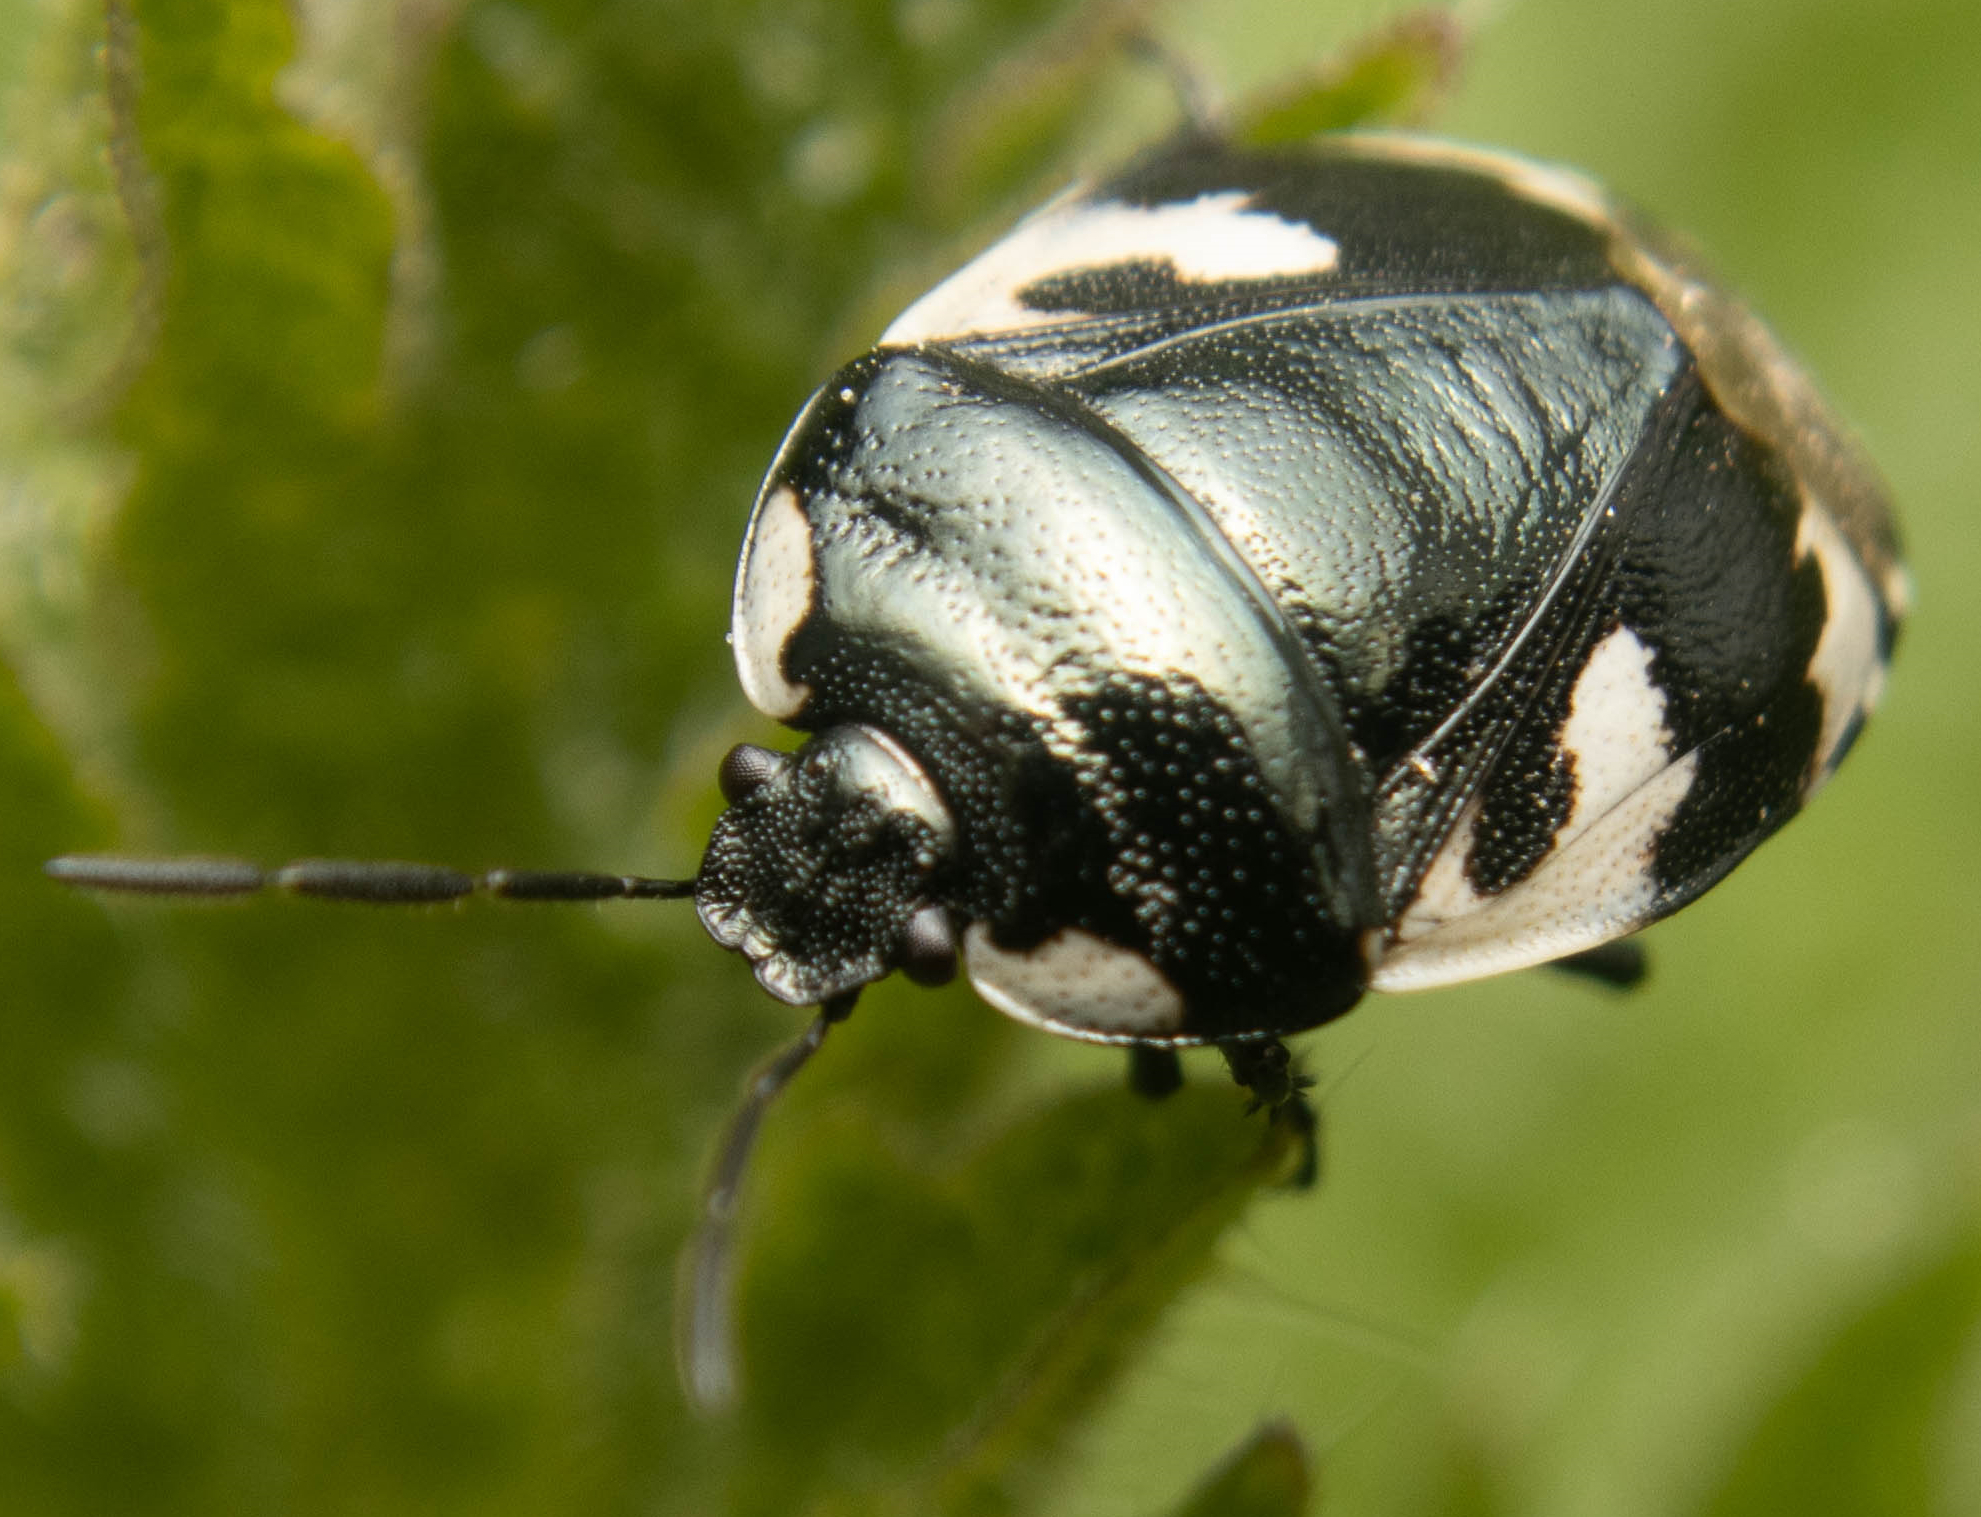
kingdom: Animalia
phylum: Arthropoda
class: Insecta
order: Hemiptera
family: Cydnidae
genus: Tritomegas
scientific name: Tritomegas bicolor
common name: Pied shieldbug
